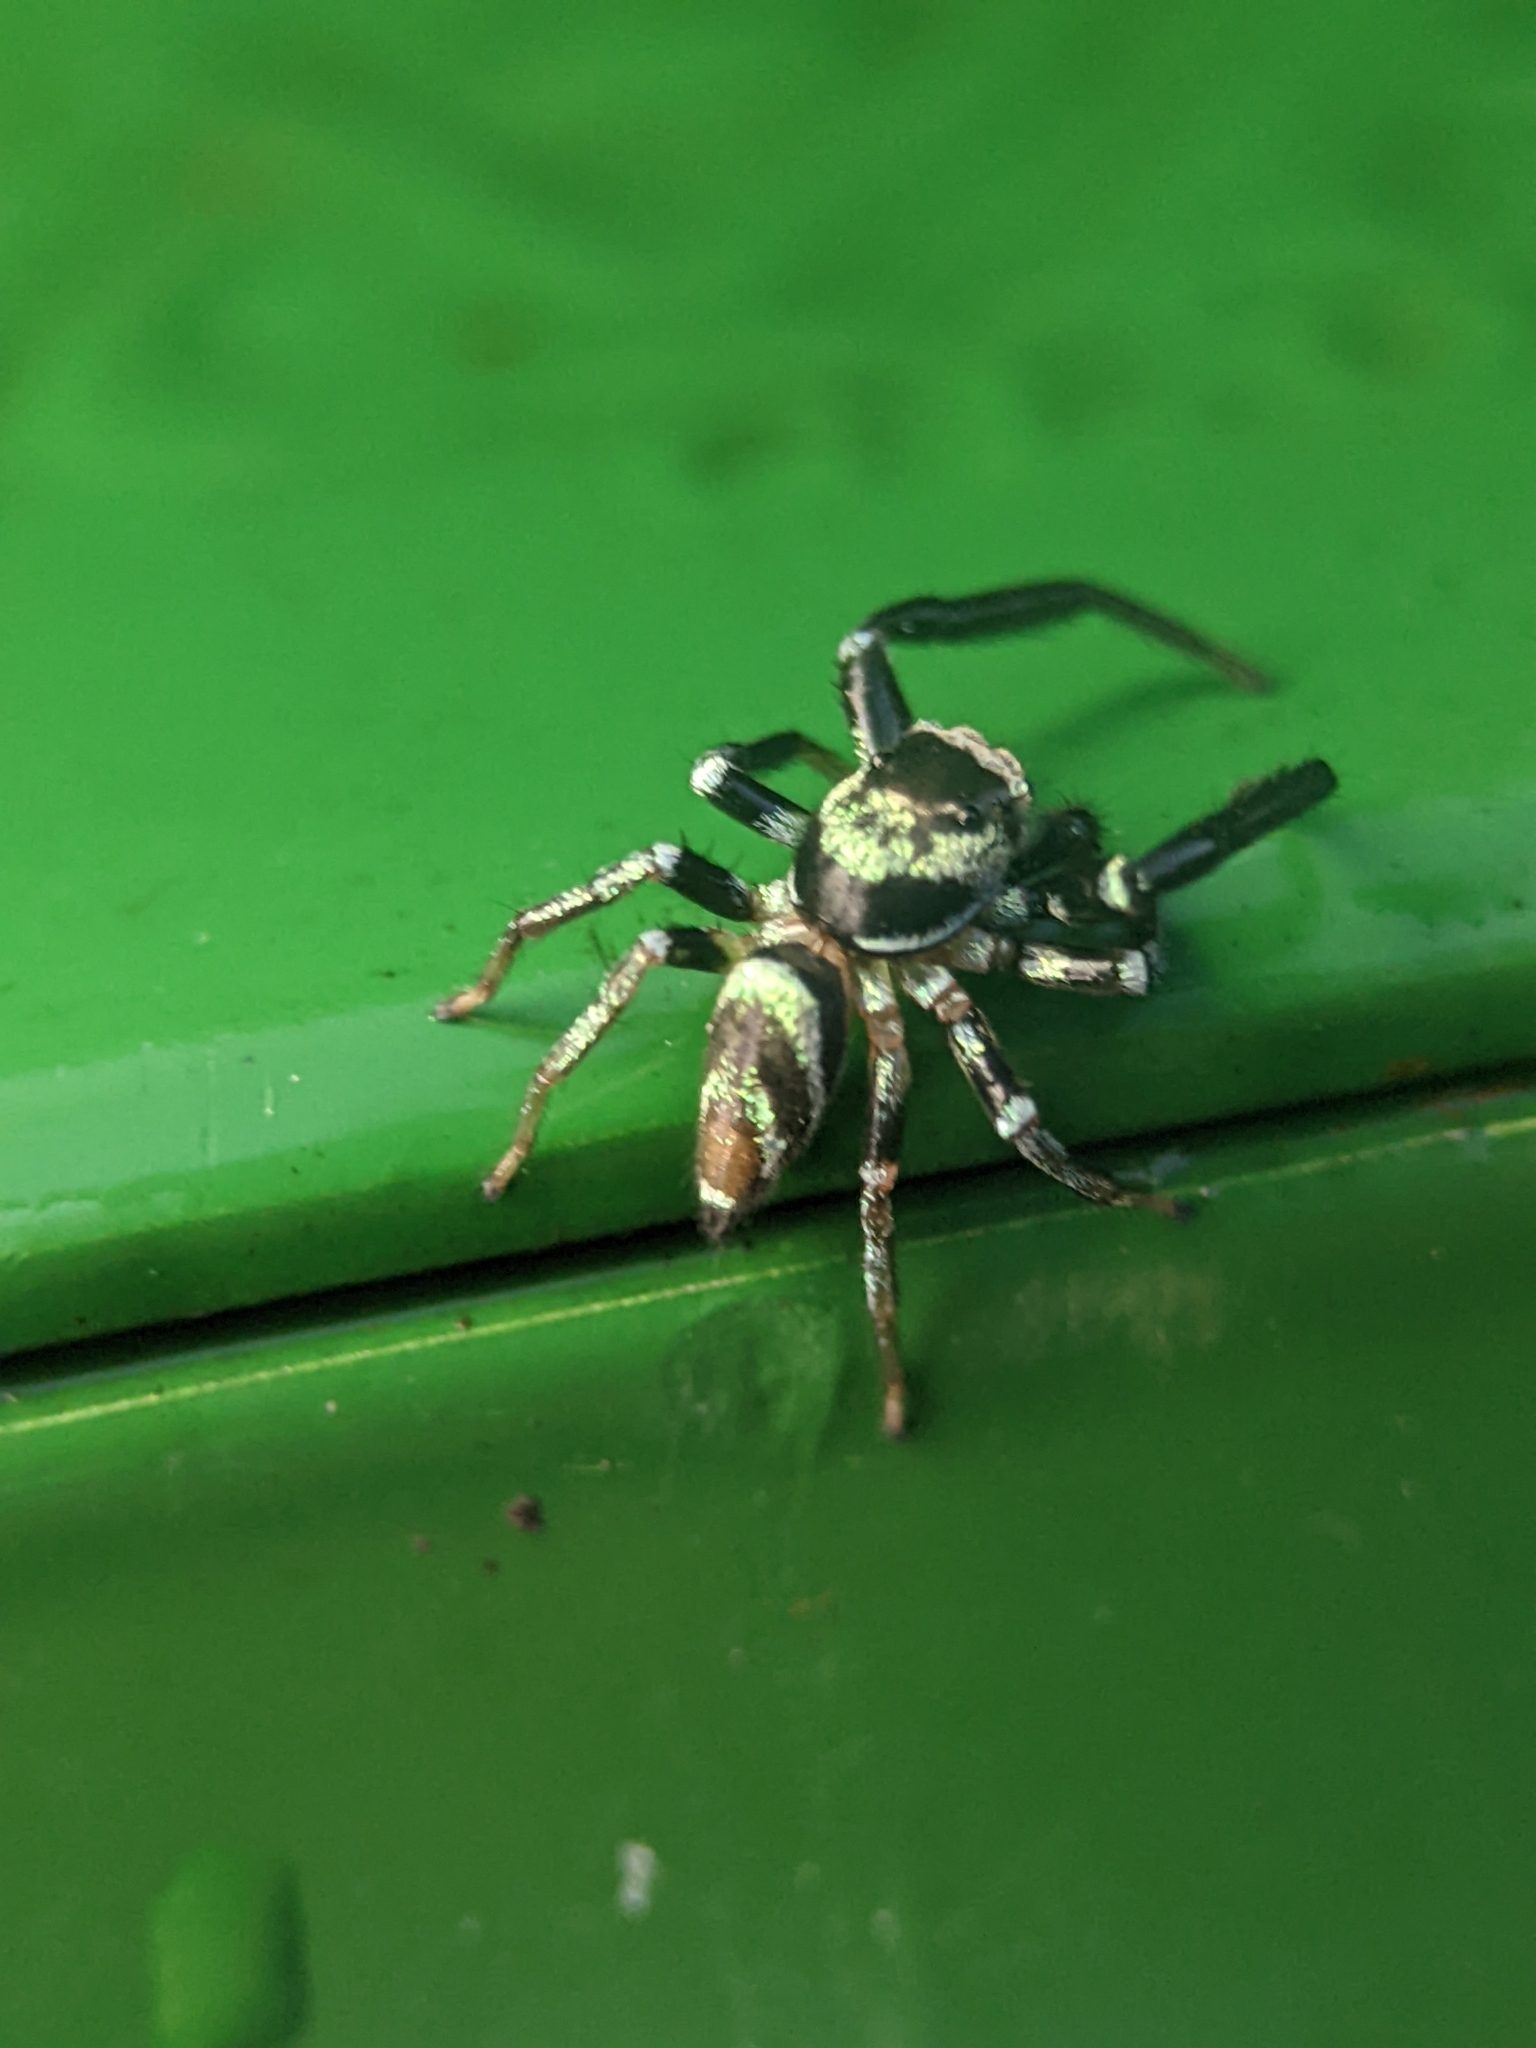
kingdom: Animalia
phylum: Arthropoda
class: Arachnida
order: Araneae
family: Salticidae
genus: Thiania
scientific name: Thiania bhamoensis
